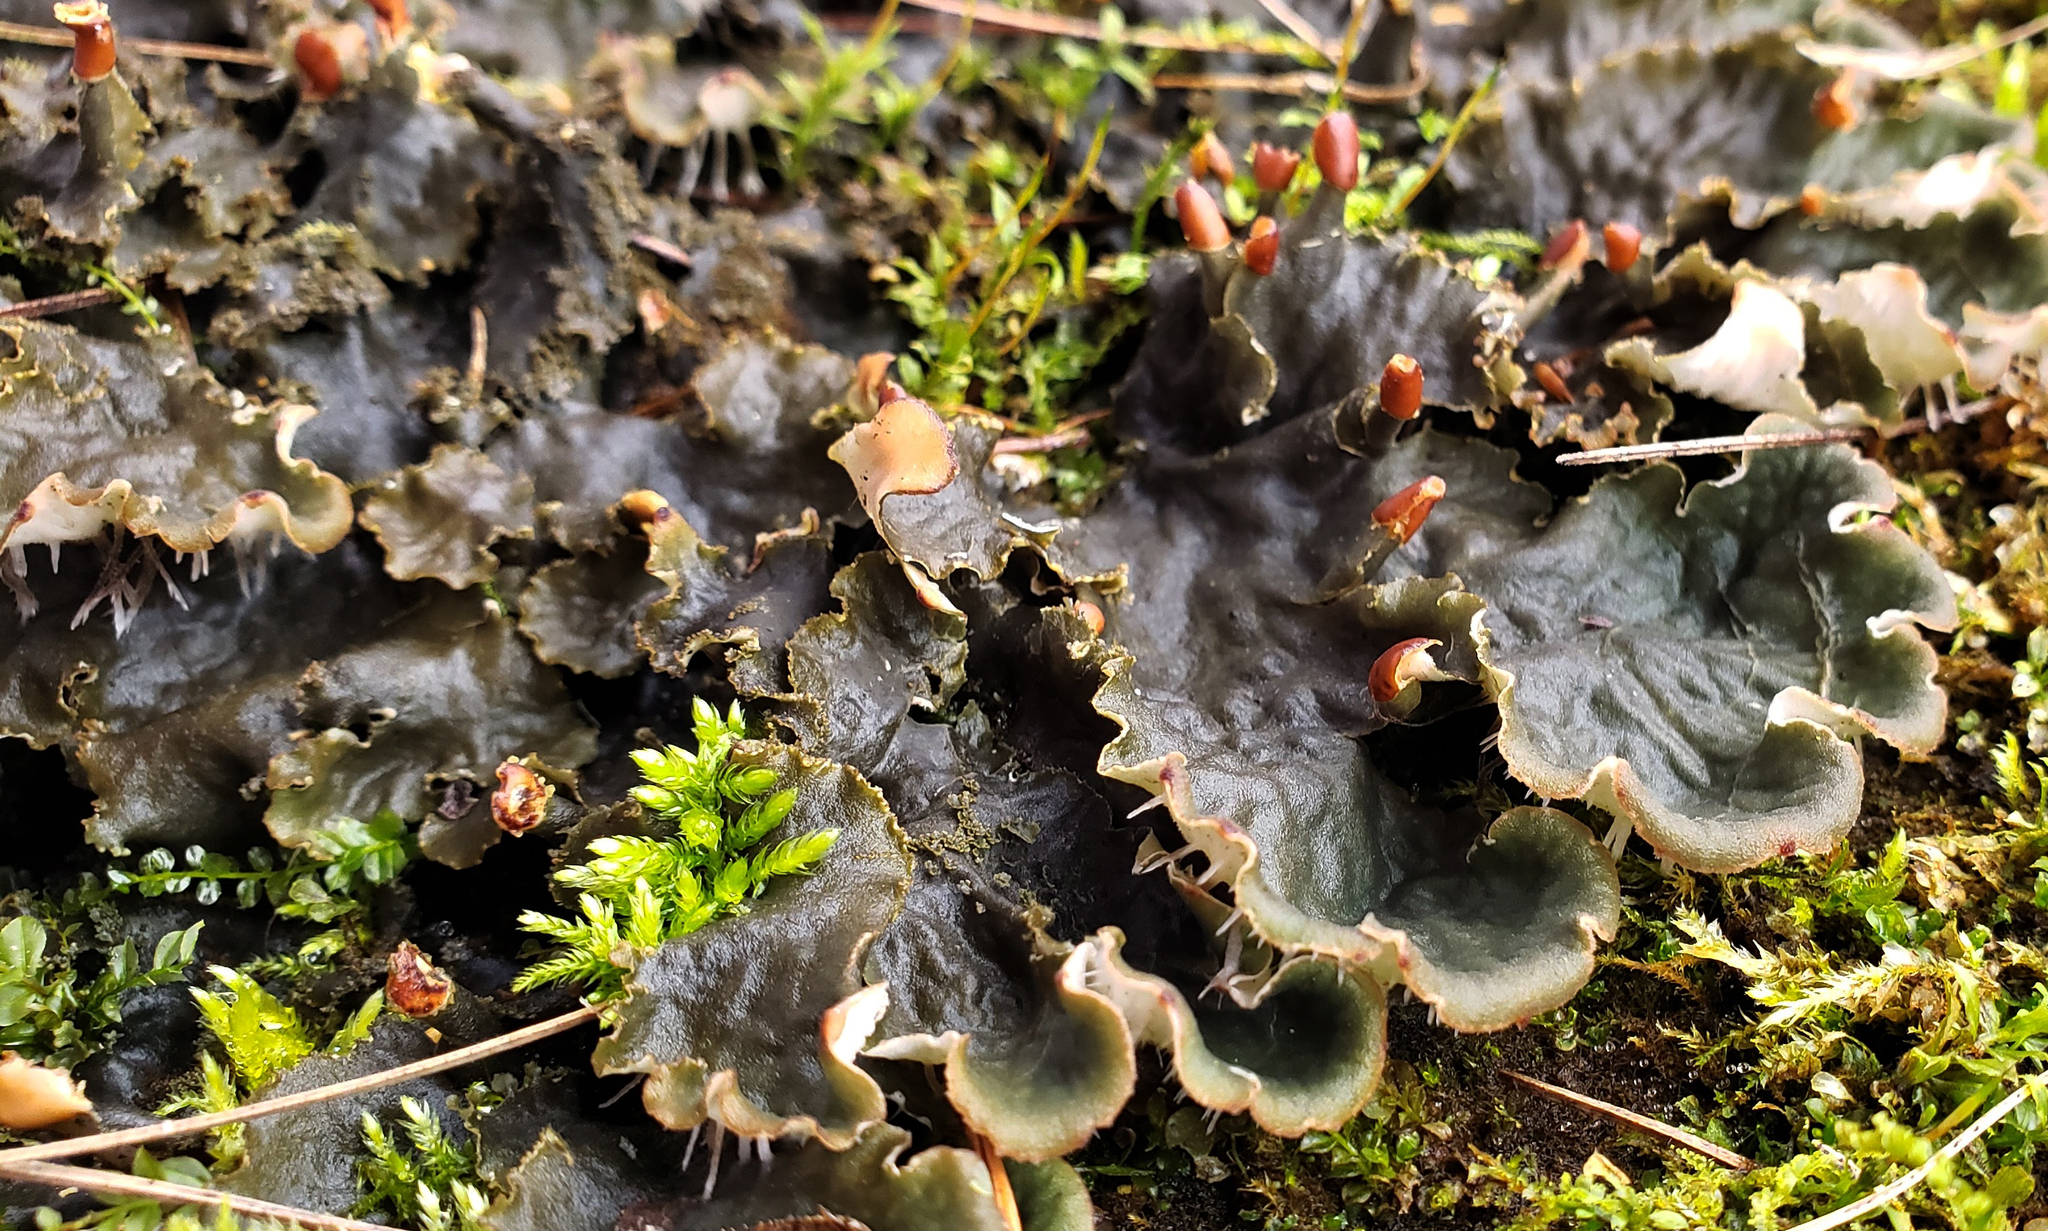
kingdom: Fungi
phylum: Ascomycota
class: Lecanoromycetes
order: Peltigerales
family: Peltigeraceae
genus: Peltigera
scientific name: Peltigera praetextata
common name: Scaly dog-lichen
